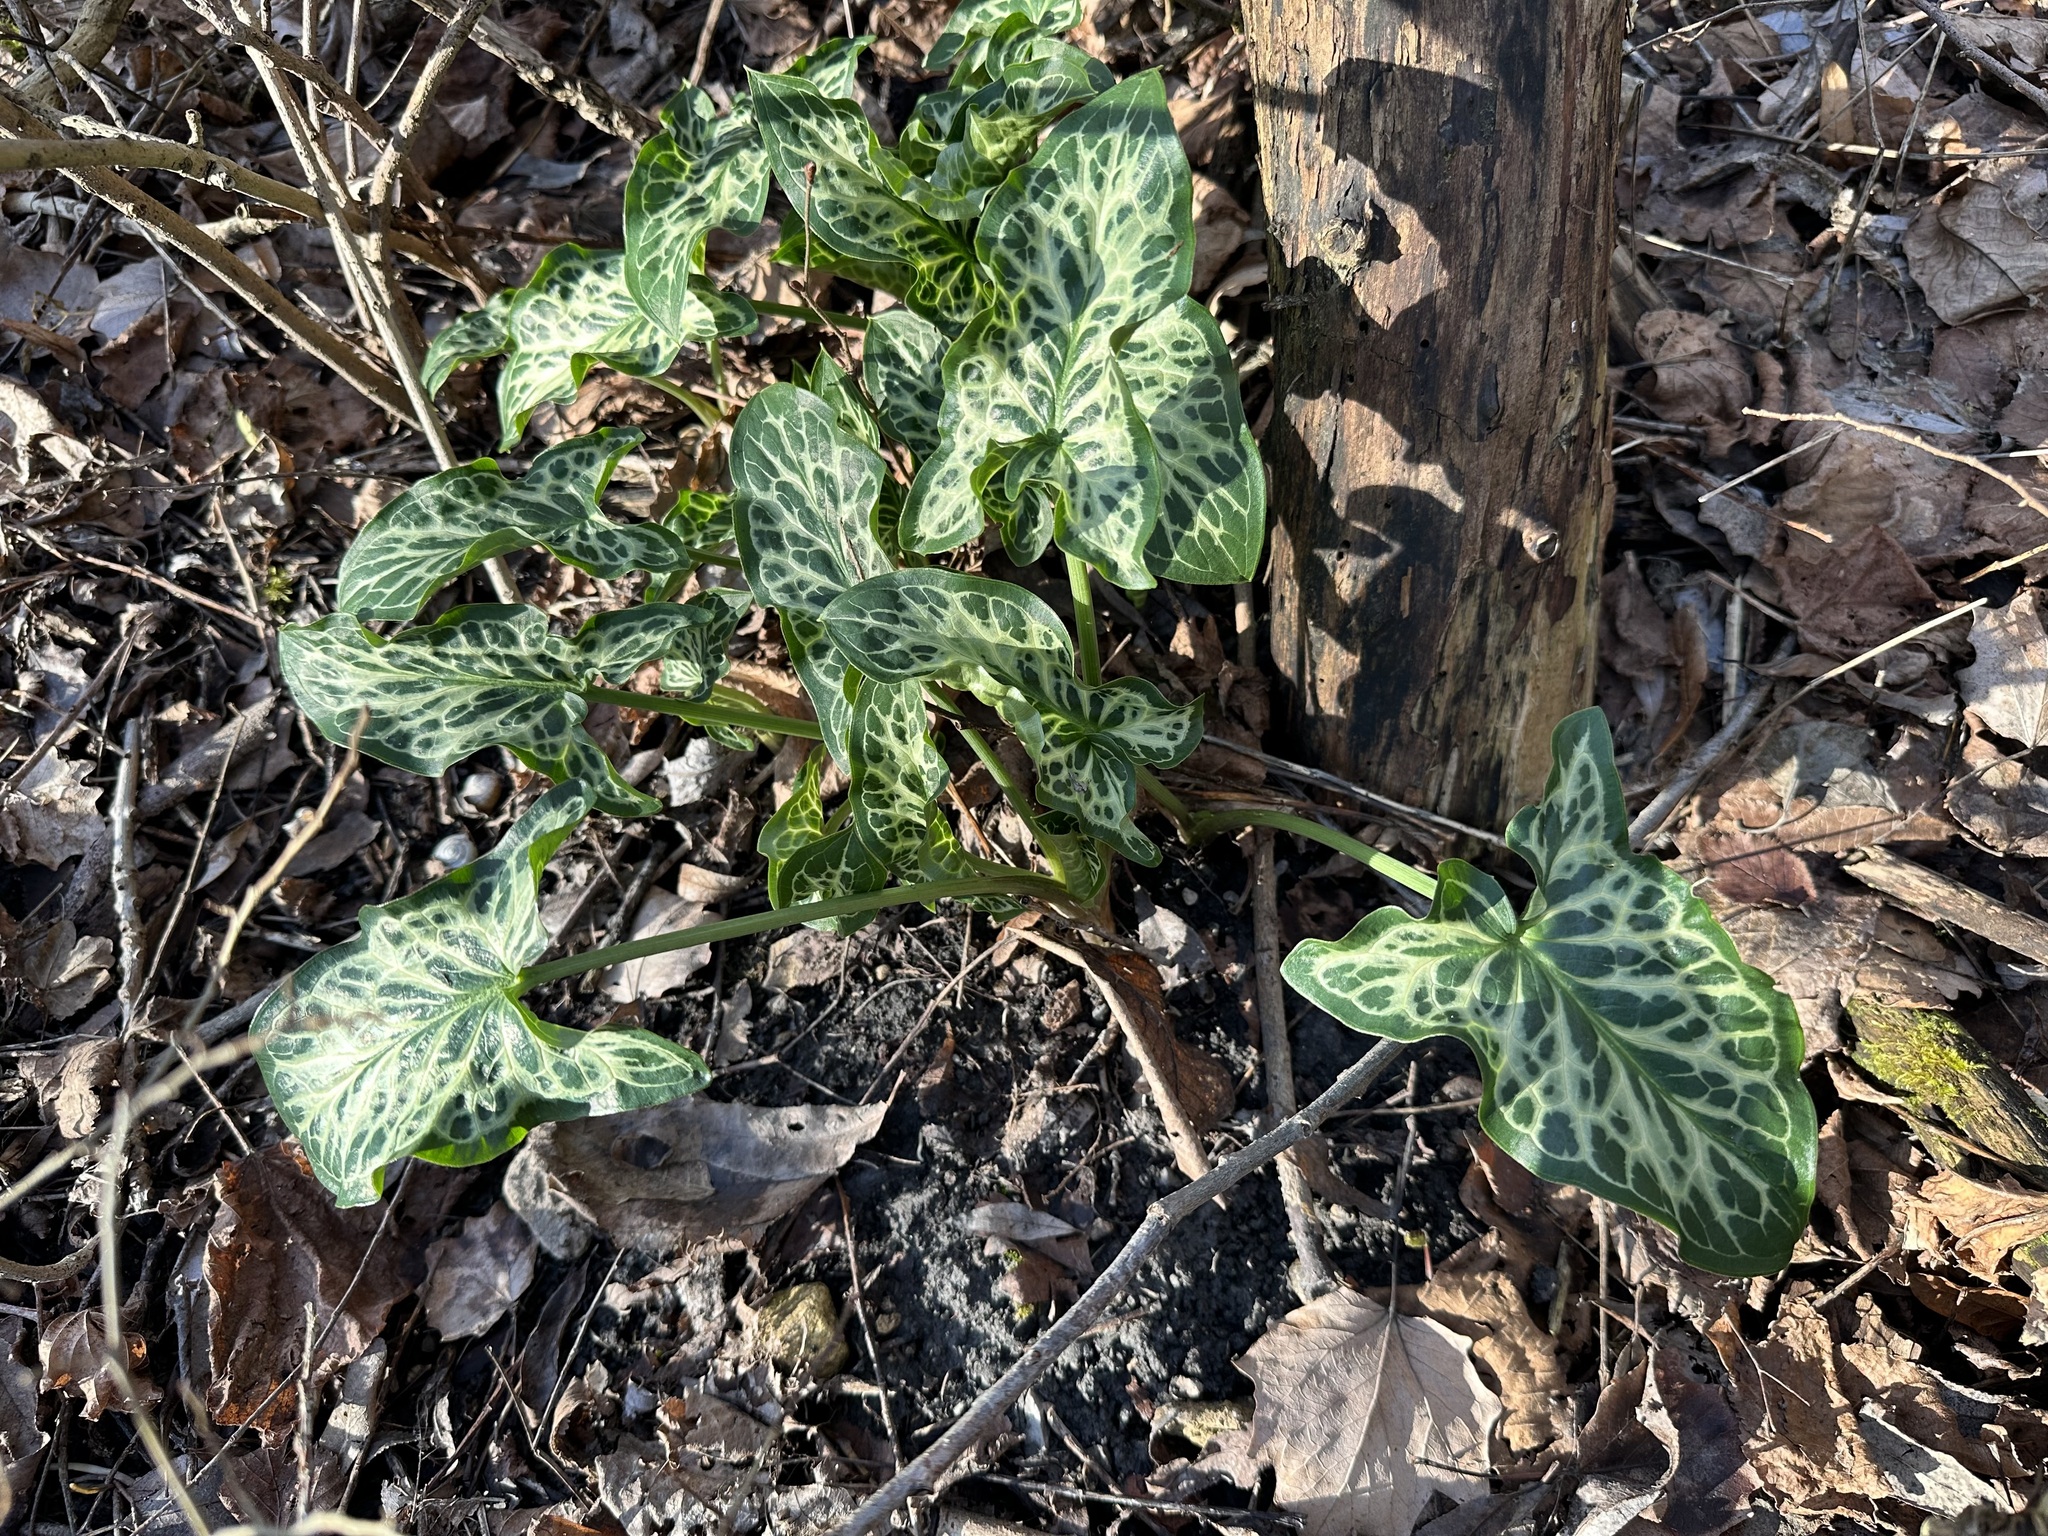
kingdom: Plantae
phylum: Tracheophyta
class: Liliopsida
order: Alismatales
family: Araceae
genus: Arum
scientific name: Arum italicum
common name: Italian lords-and-ladies
